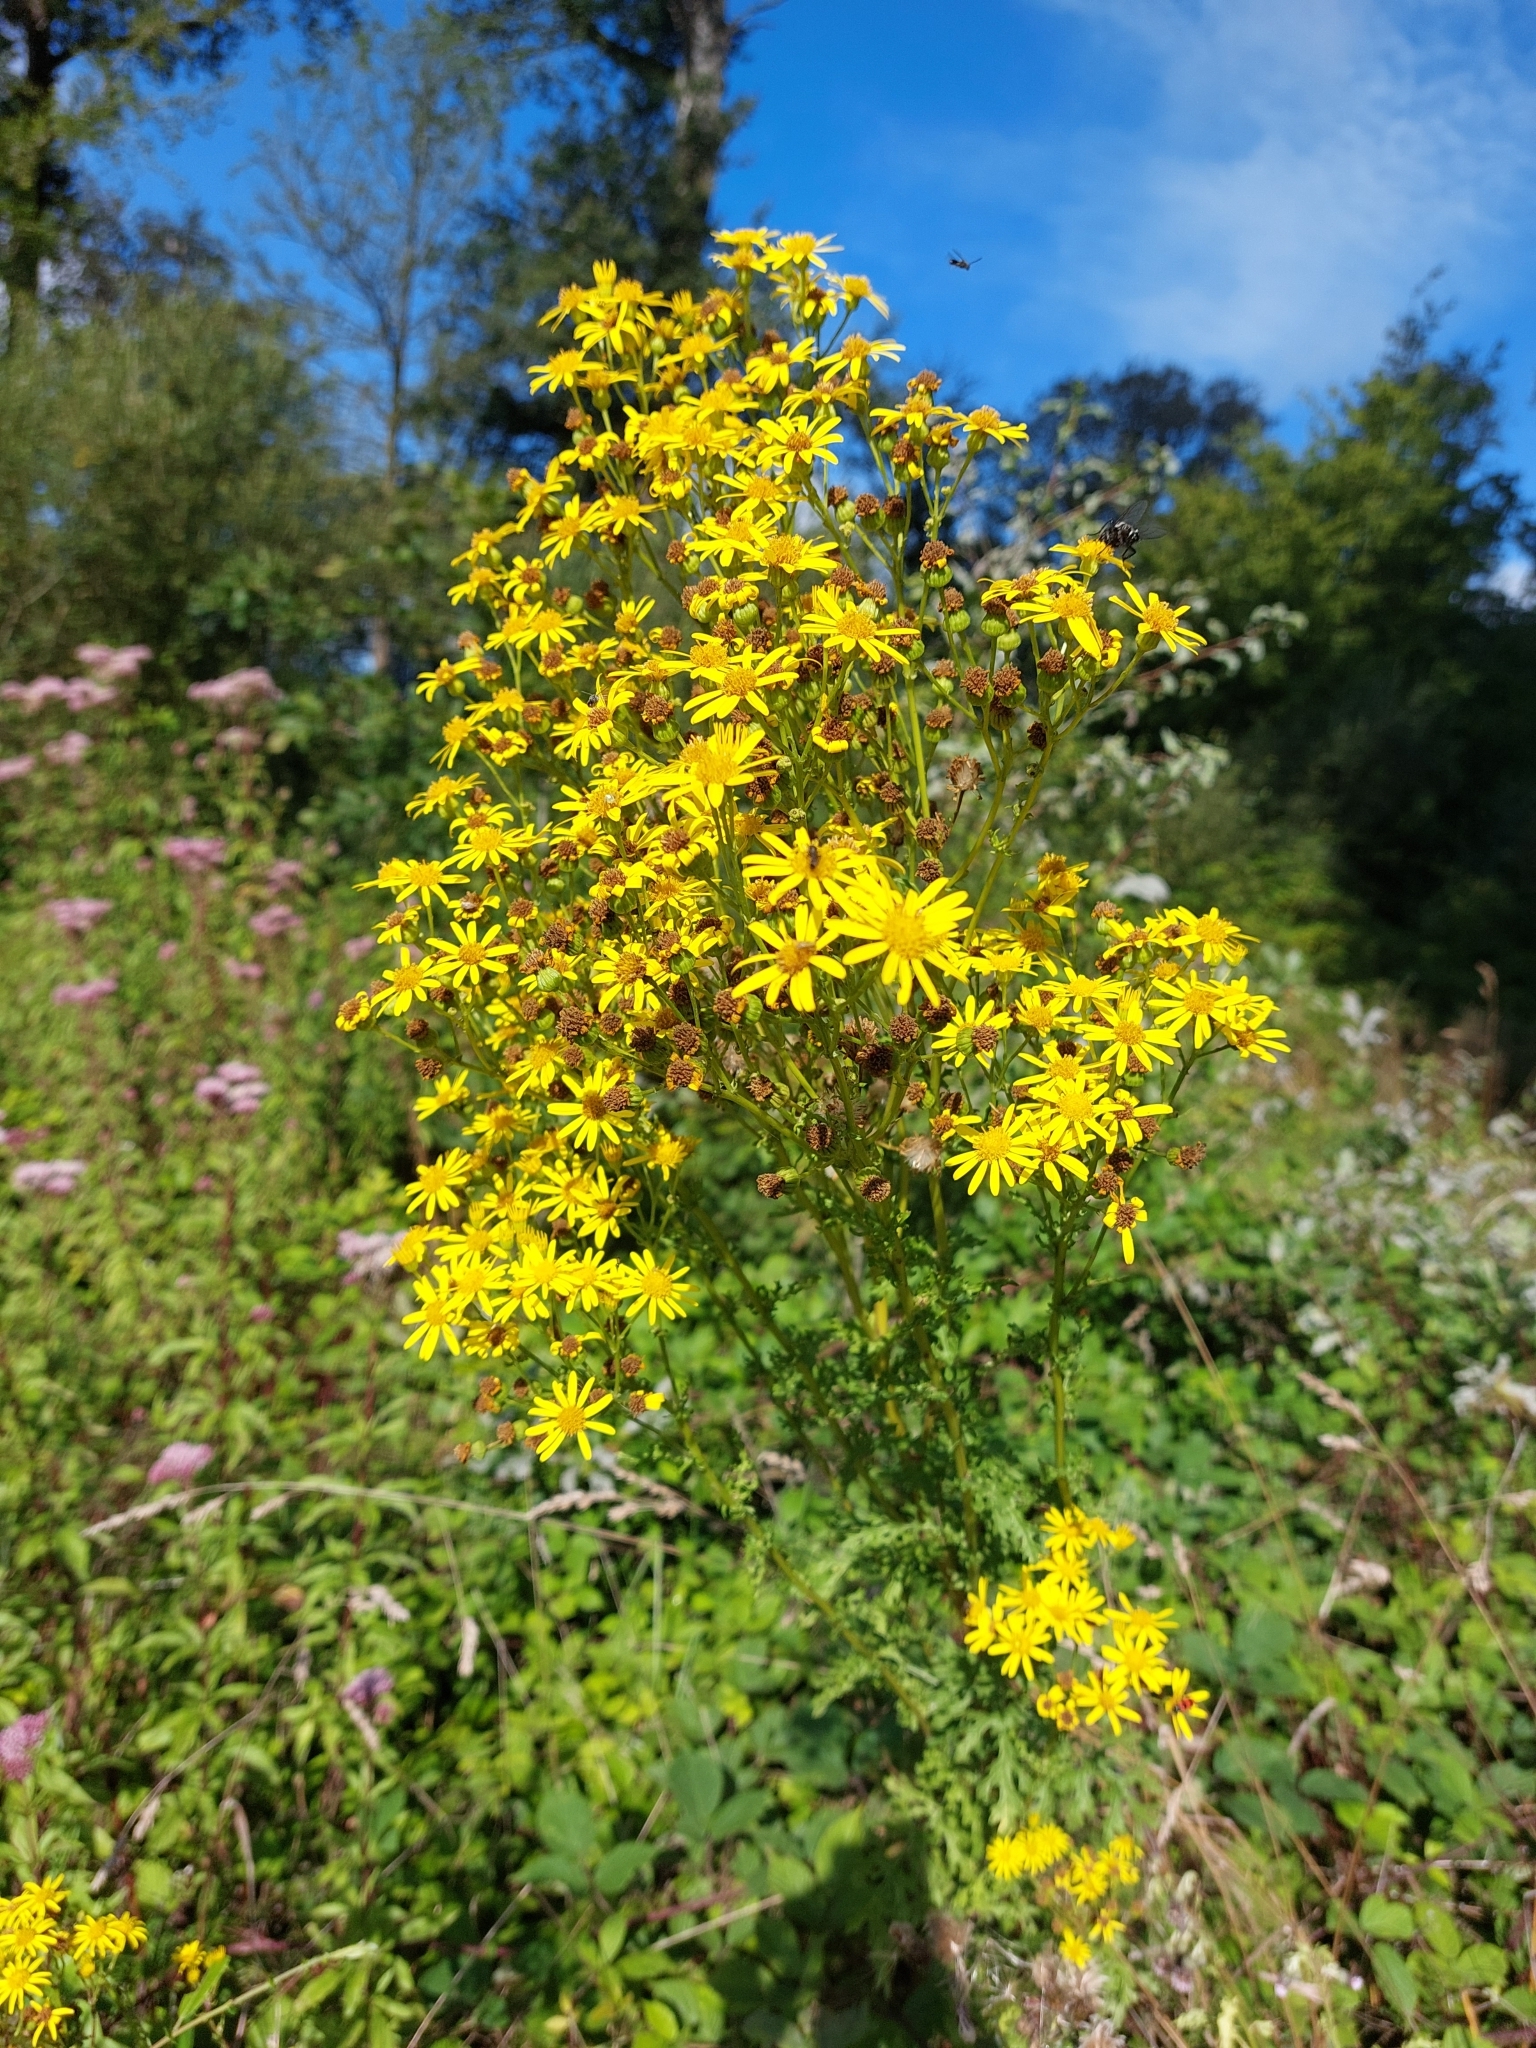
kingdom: Plantae
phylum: Tracheophyta
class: Magnoliopsida
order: Asterales
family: Asteraceae
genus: Jacobaea
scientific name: Jacobaea vulgaris
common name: Stinking willie
